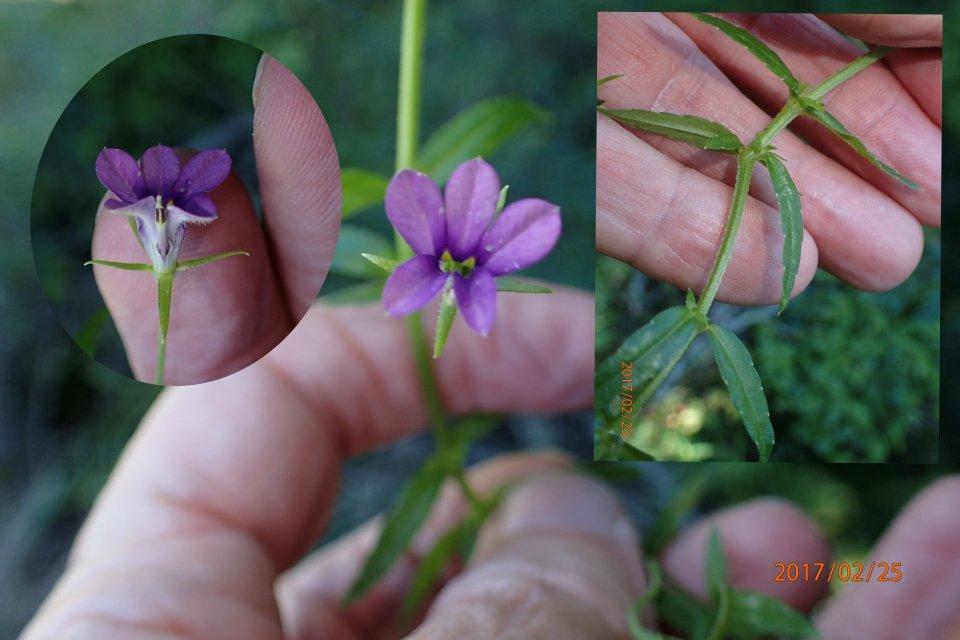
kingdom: Plantae
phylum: Tracheophyta
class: Magnoliopsida
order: Asterales
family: Campanulaceae
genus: Monopsis
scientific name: Monopsis stellarioides
